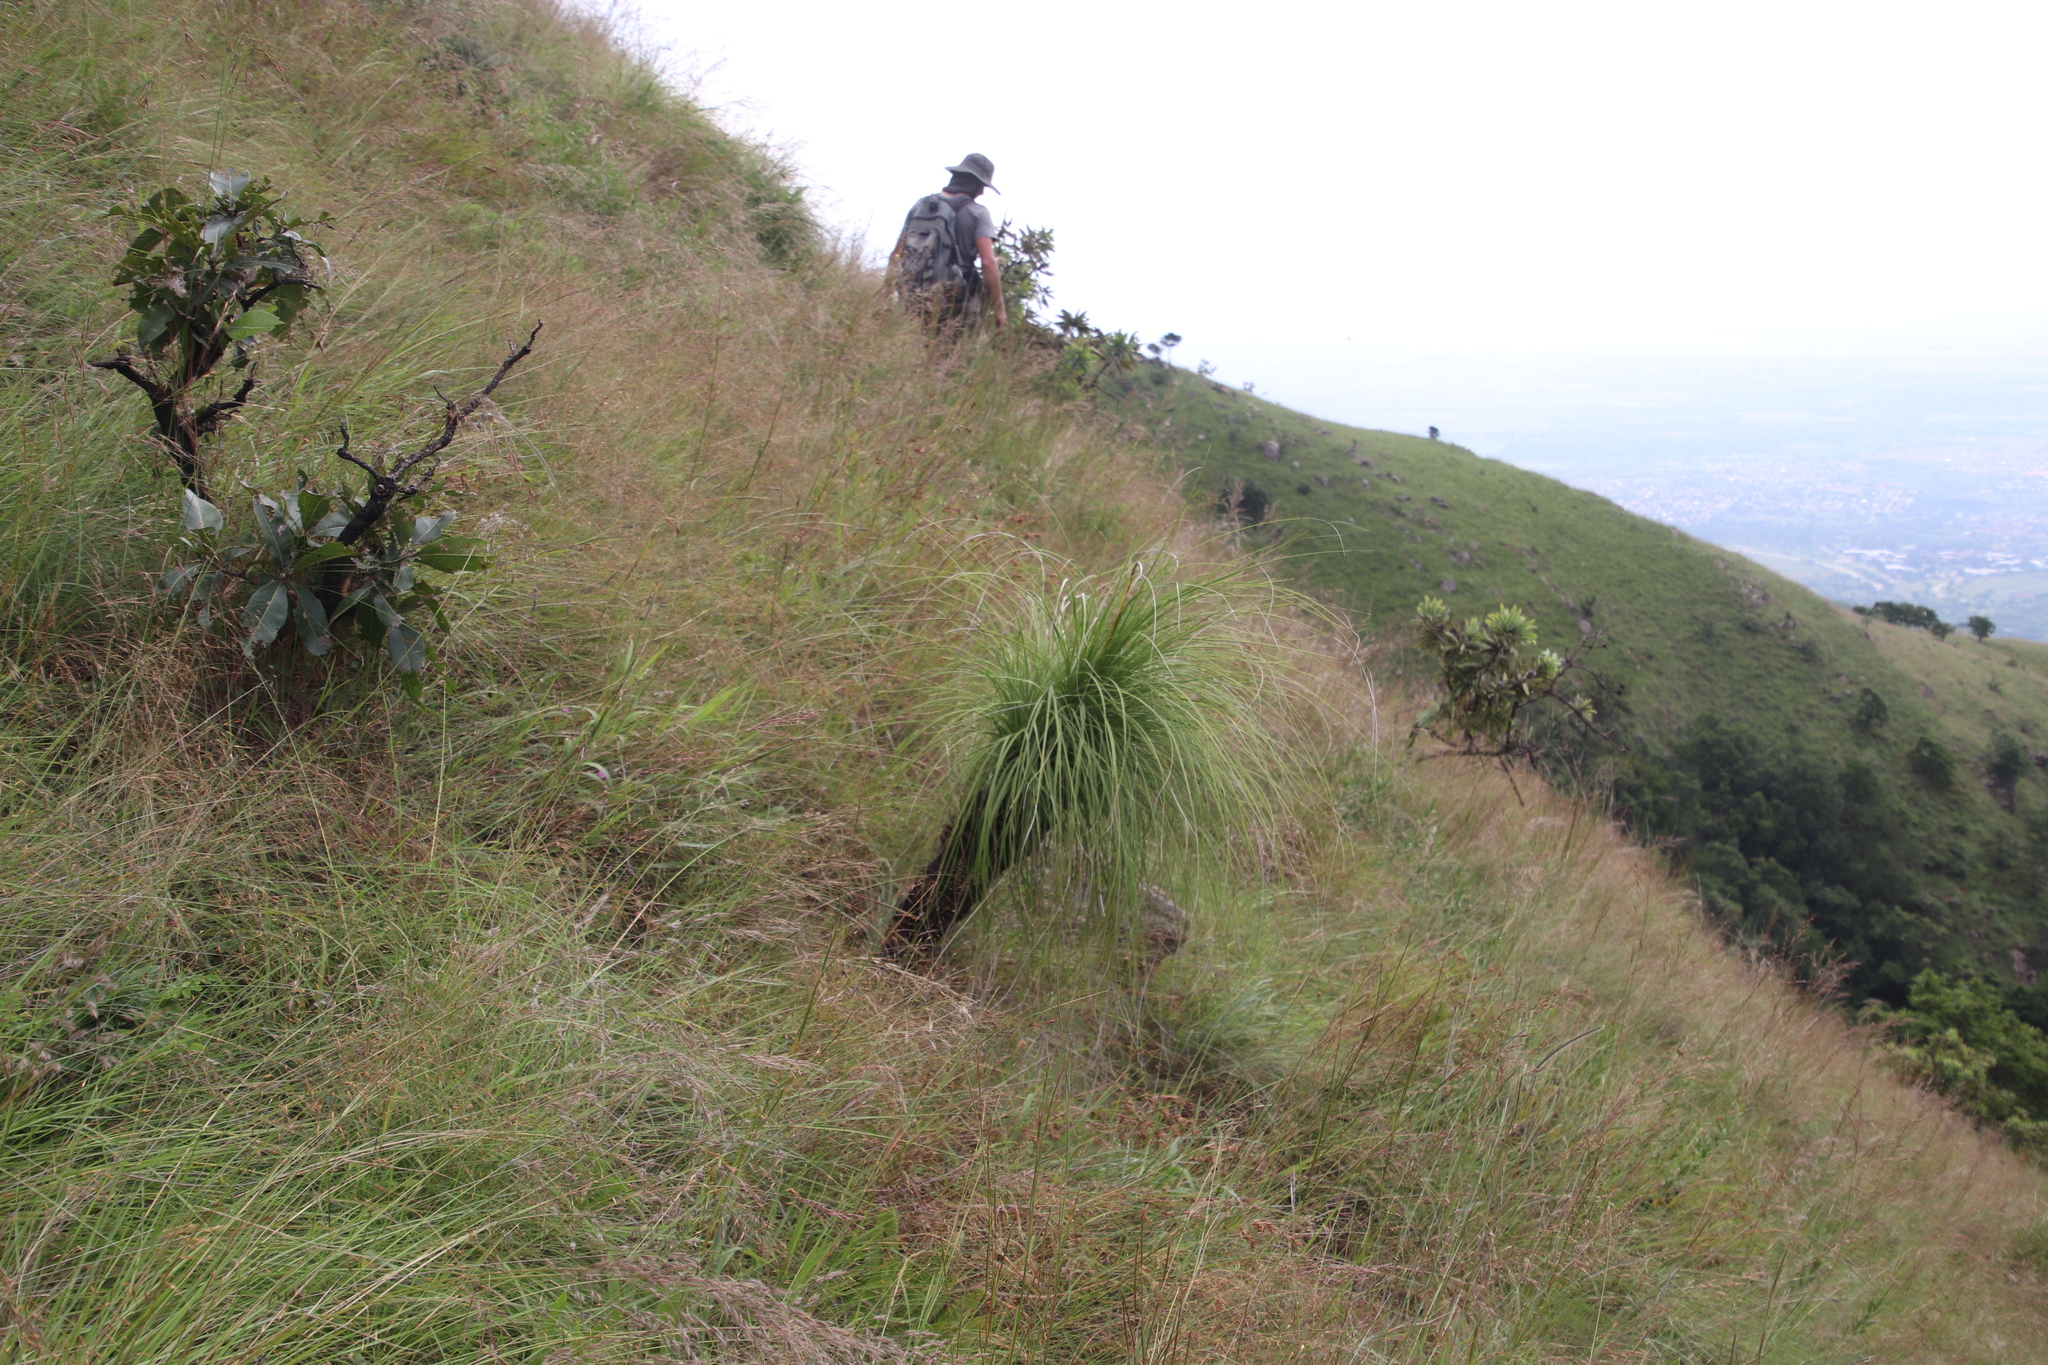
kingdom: Plantae
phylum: Tracheophyta
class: Liliopsida
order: Pandanales
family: Velloziaceae
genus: Xerophyta
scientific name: Xerophyta retinervis
